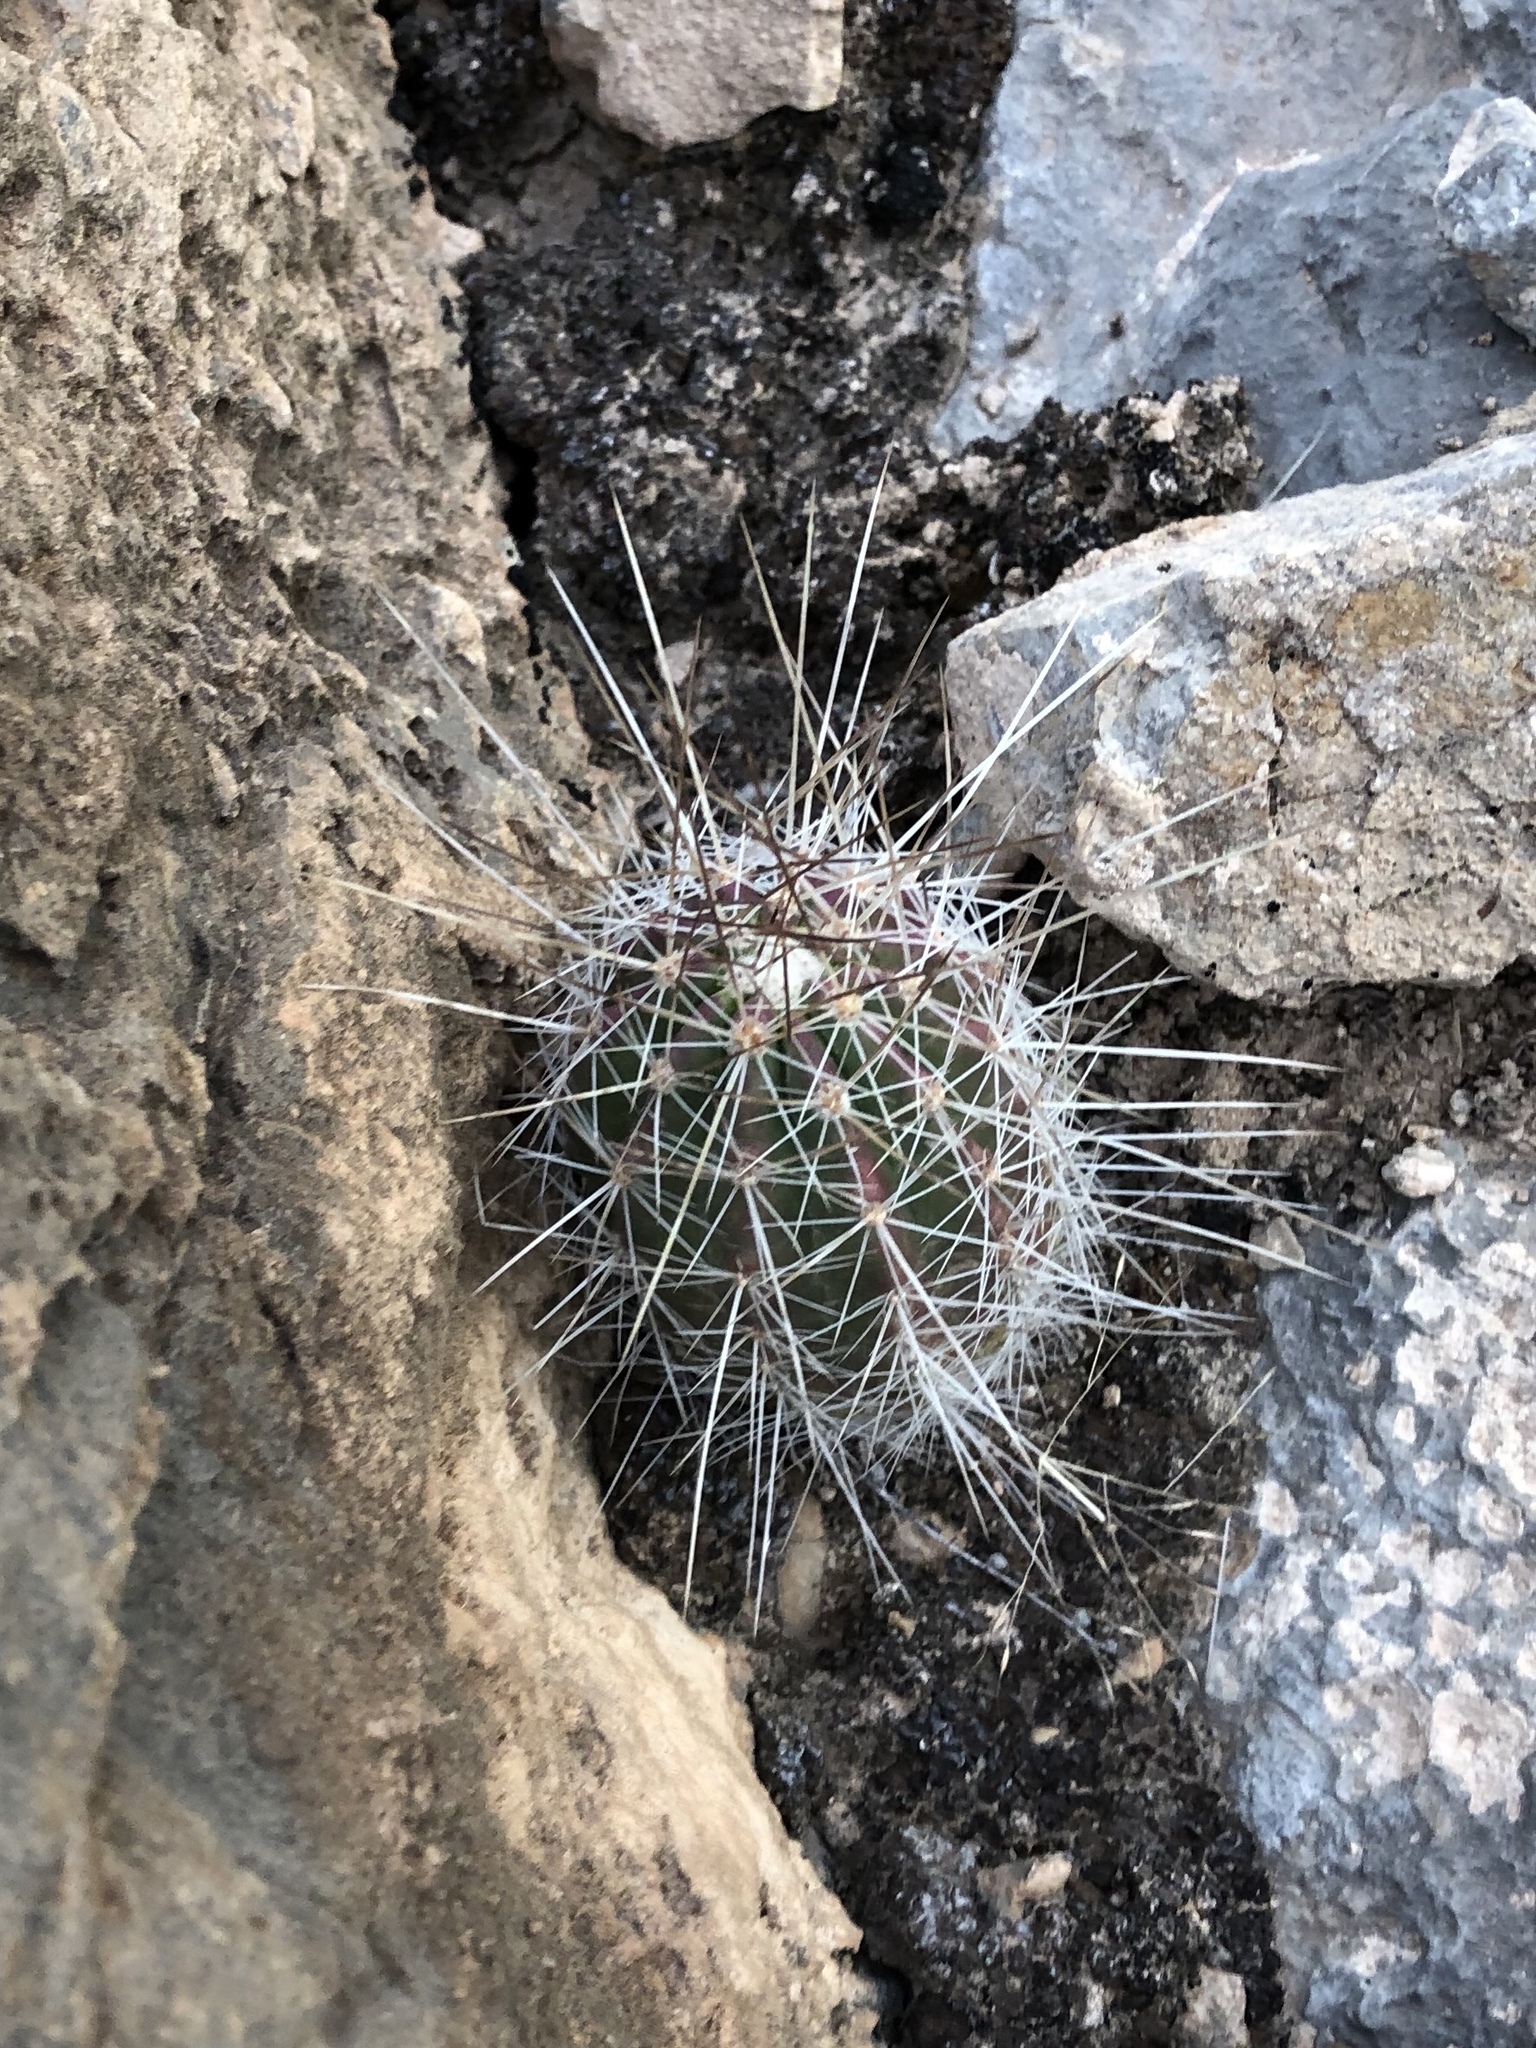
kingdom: Plantae
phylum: Tracheophyta
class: Magnoliopsida
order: Caryophyllales
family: Cactaceae
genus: Echinocereus
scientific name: Echinocereus stramineus
